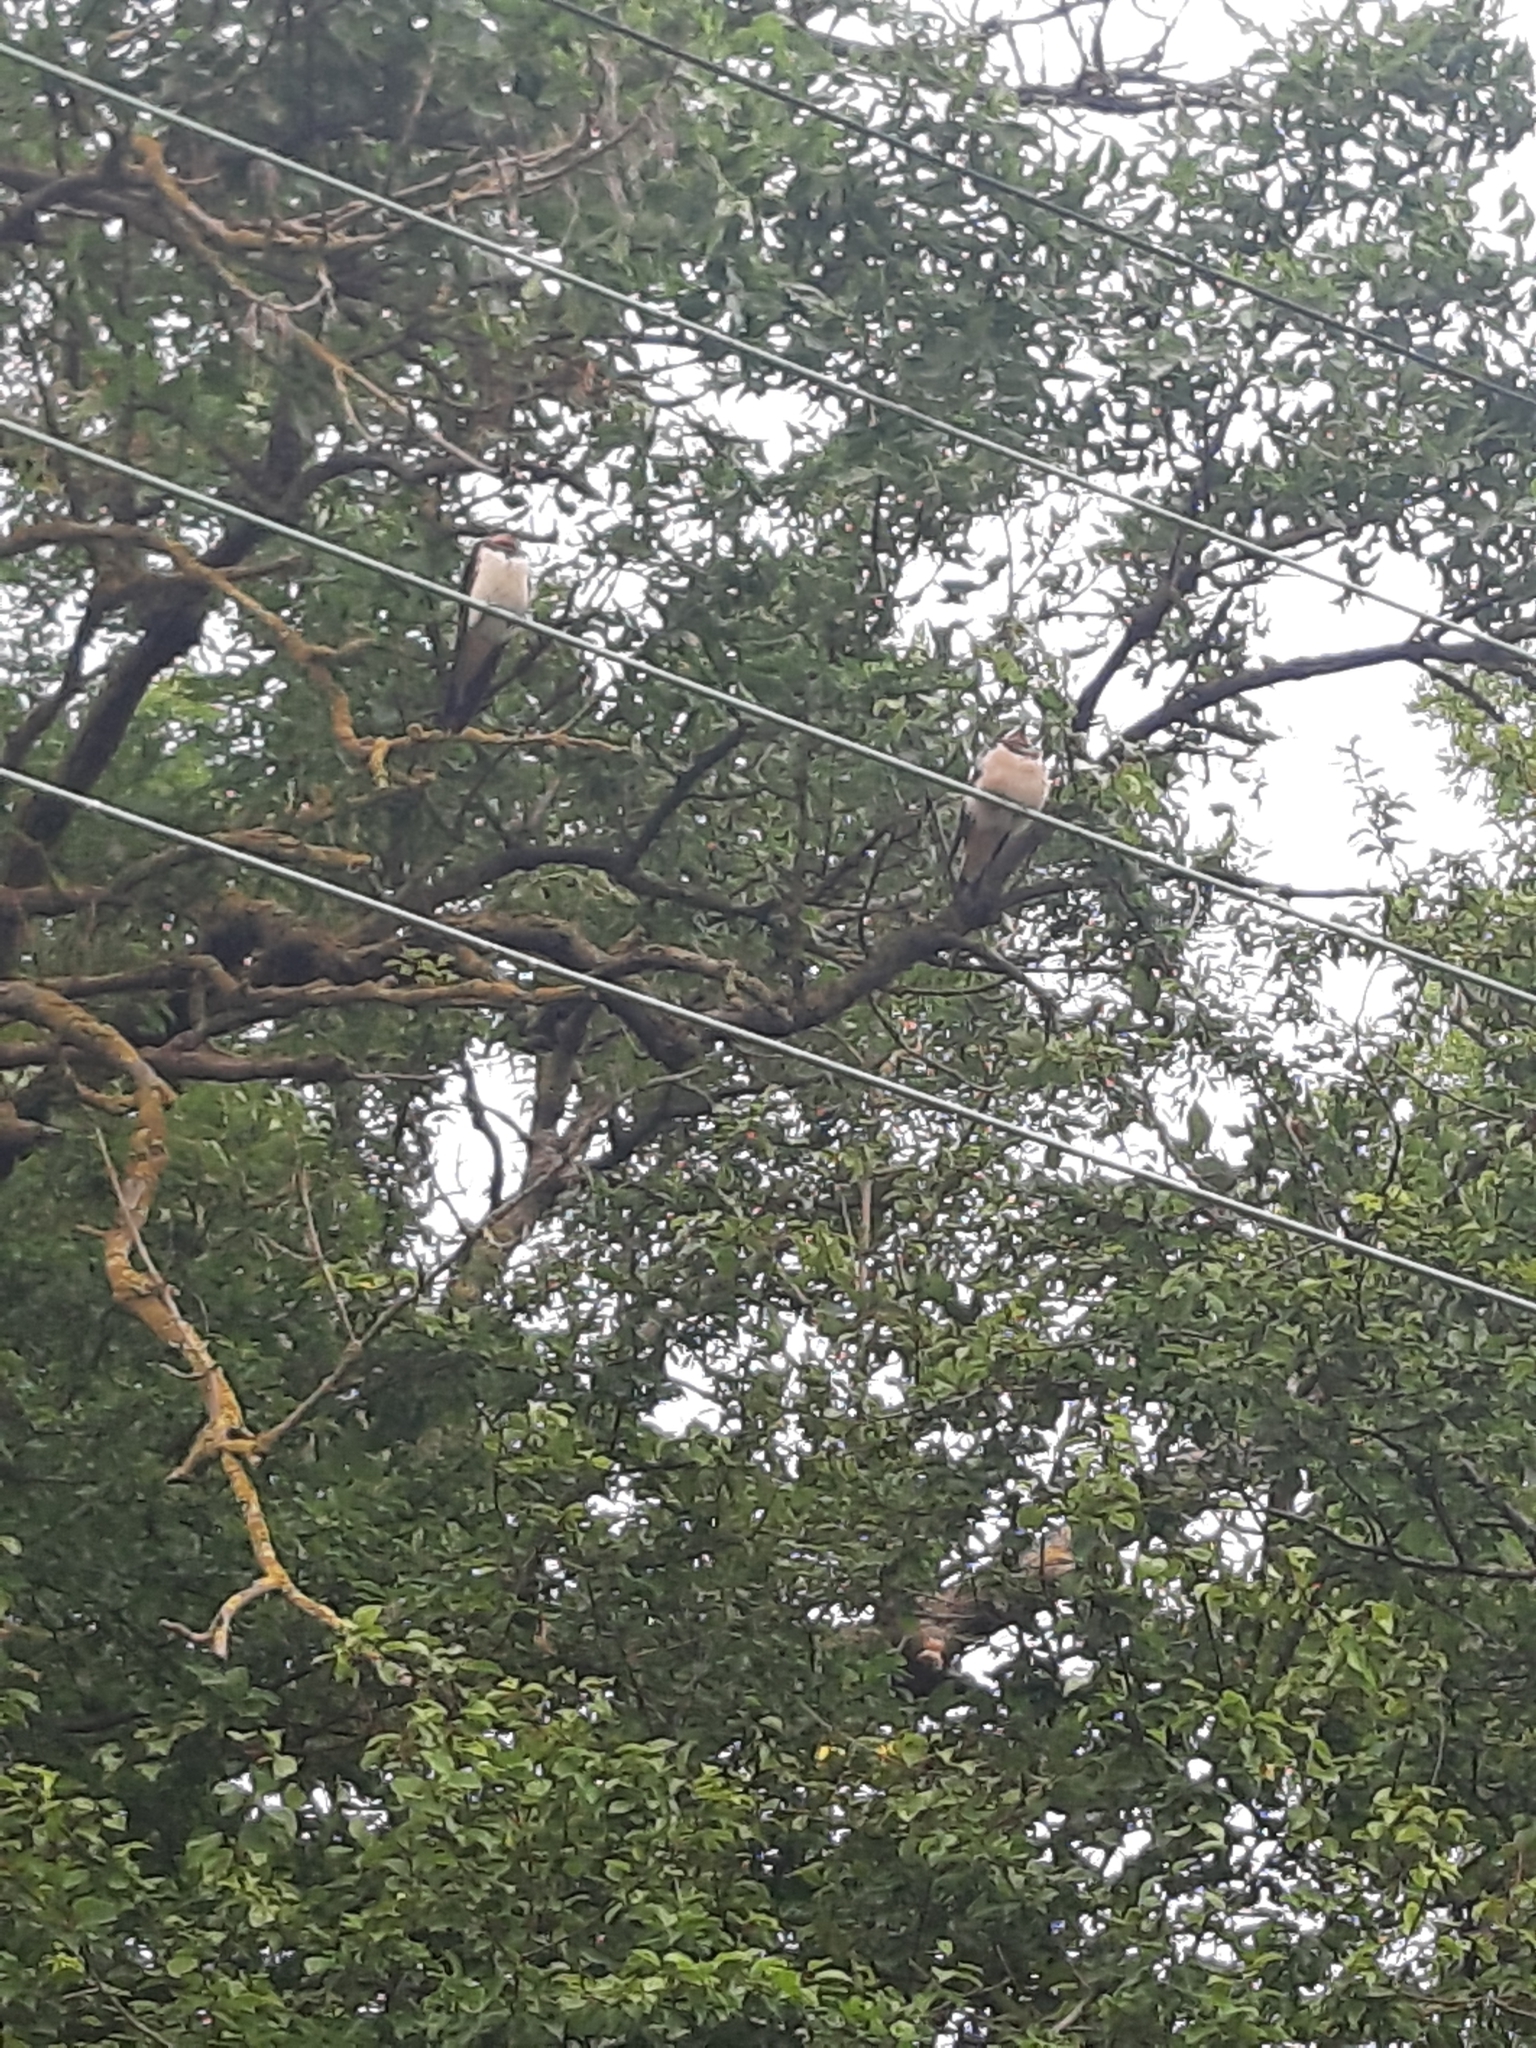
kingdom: Animalia
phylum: Chordata
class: Aves
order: Passeriformes
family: Hirundinidae
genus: Hirundo
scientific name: Hirundo rustica
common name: Barn swallow
